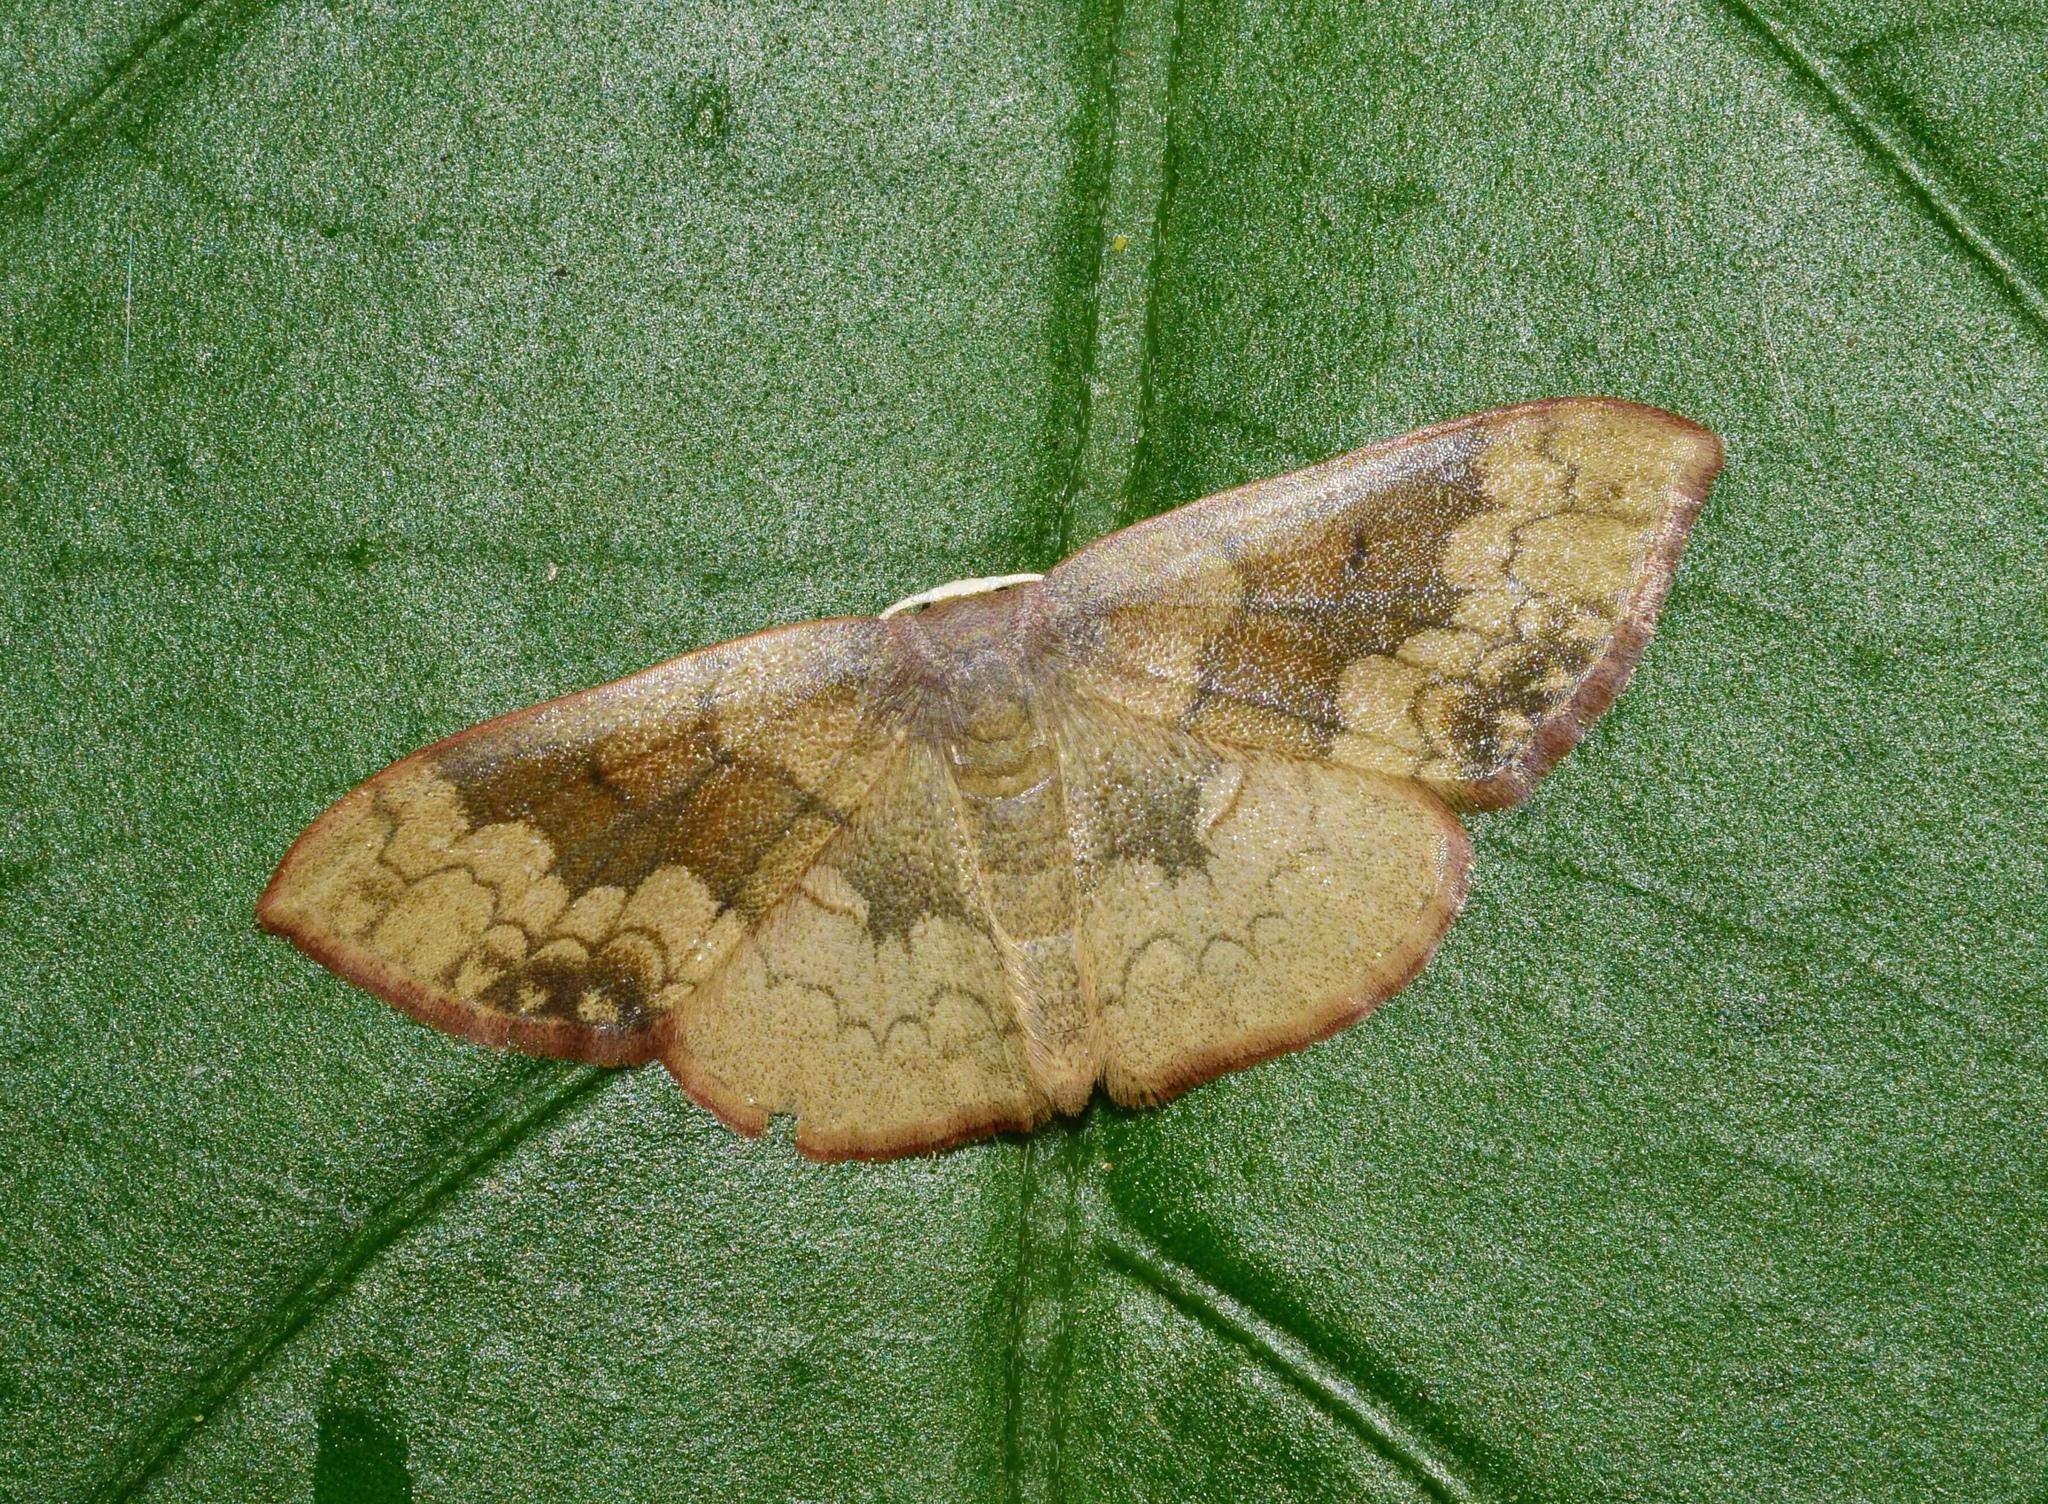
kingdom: Animalia
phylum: Arthropoda
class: Insecta
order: Lepidoptera
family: Geometridae
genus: Epicosymbia
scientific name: Epicosymbia nitidata
